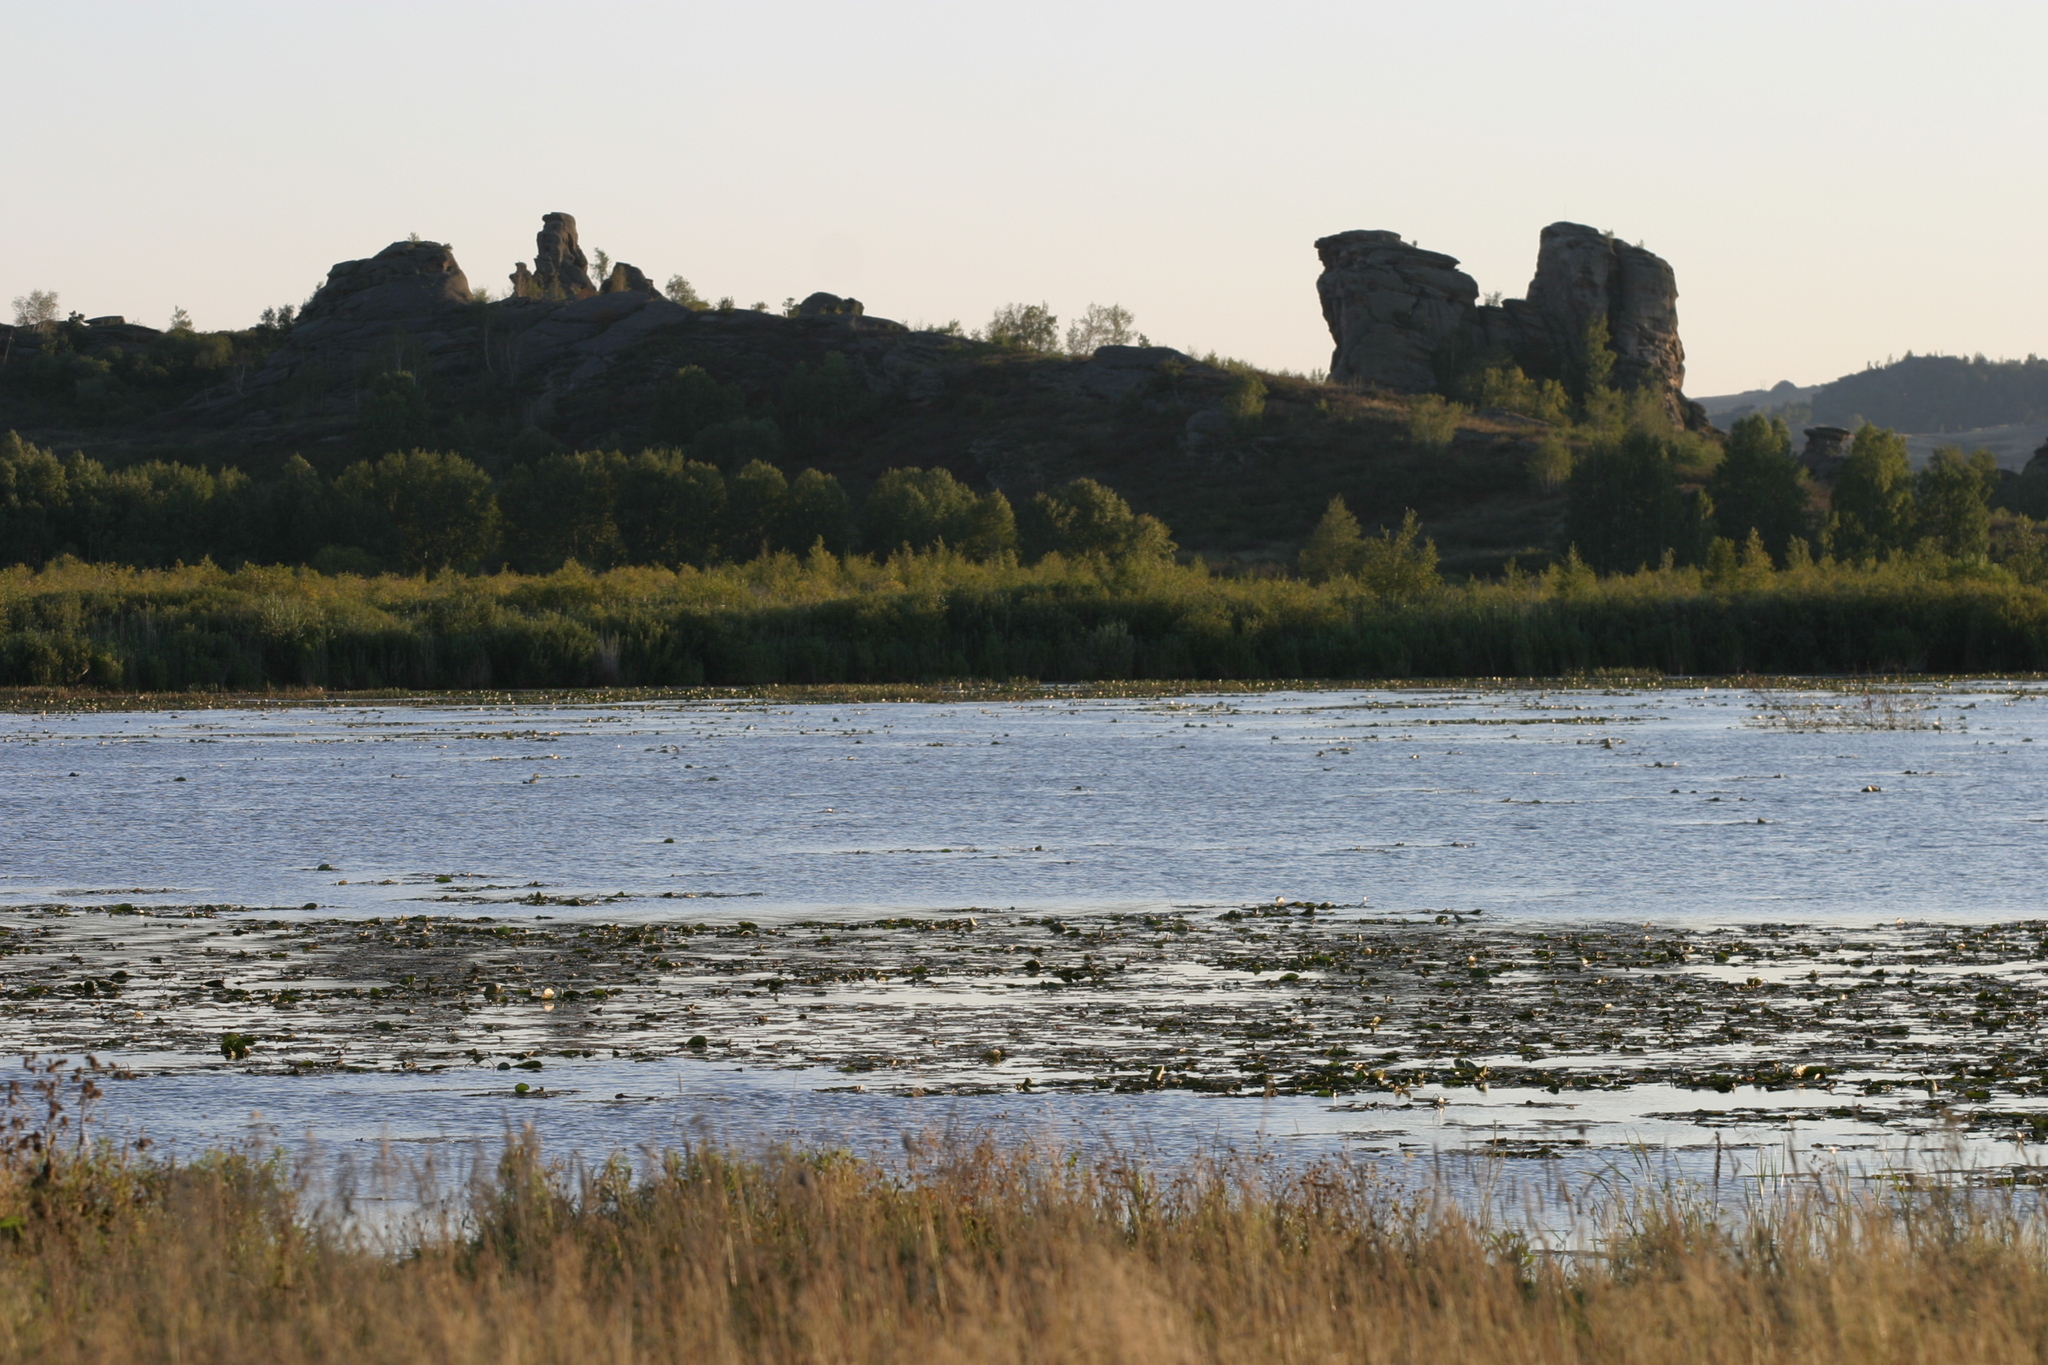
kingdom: Plantae
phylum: Tracheophyta
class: Magnoliopsida
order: Nymphaeales
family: Nymphaeaceae
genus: Nymphaea
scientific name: Nymphaea candida
